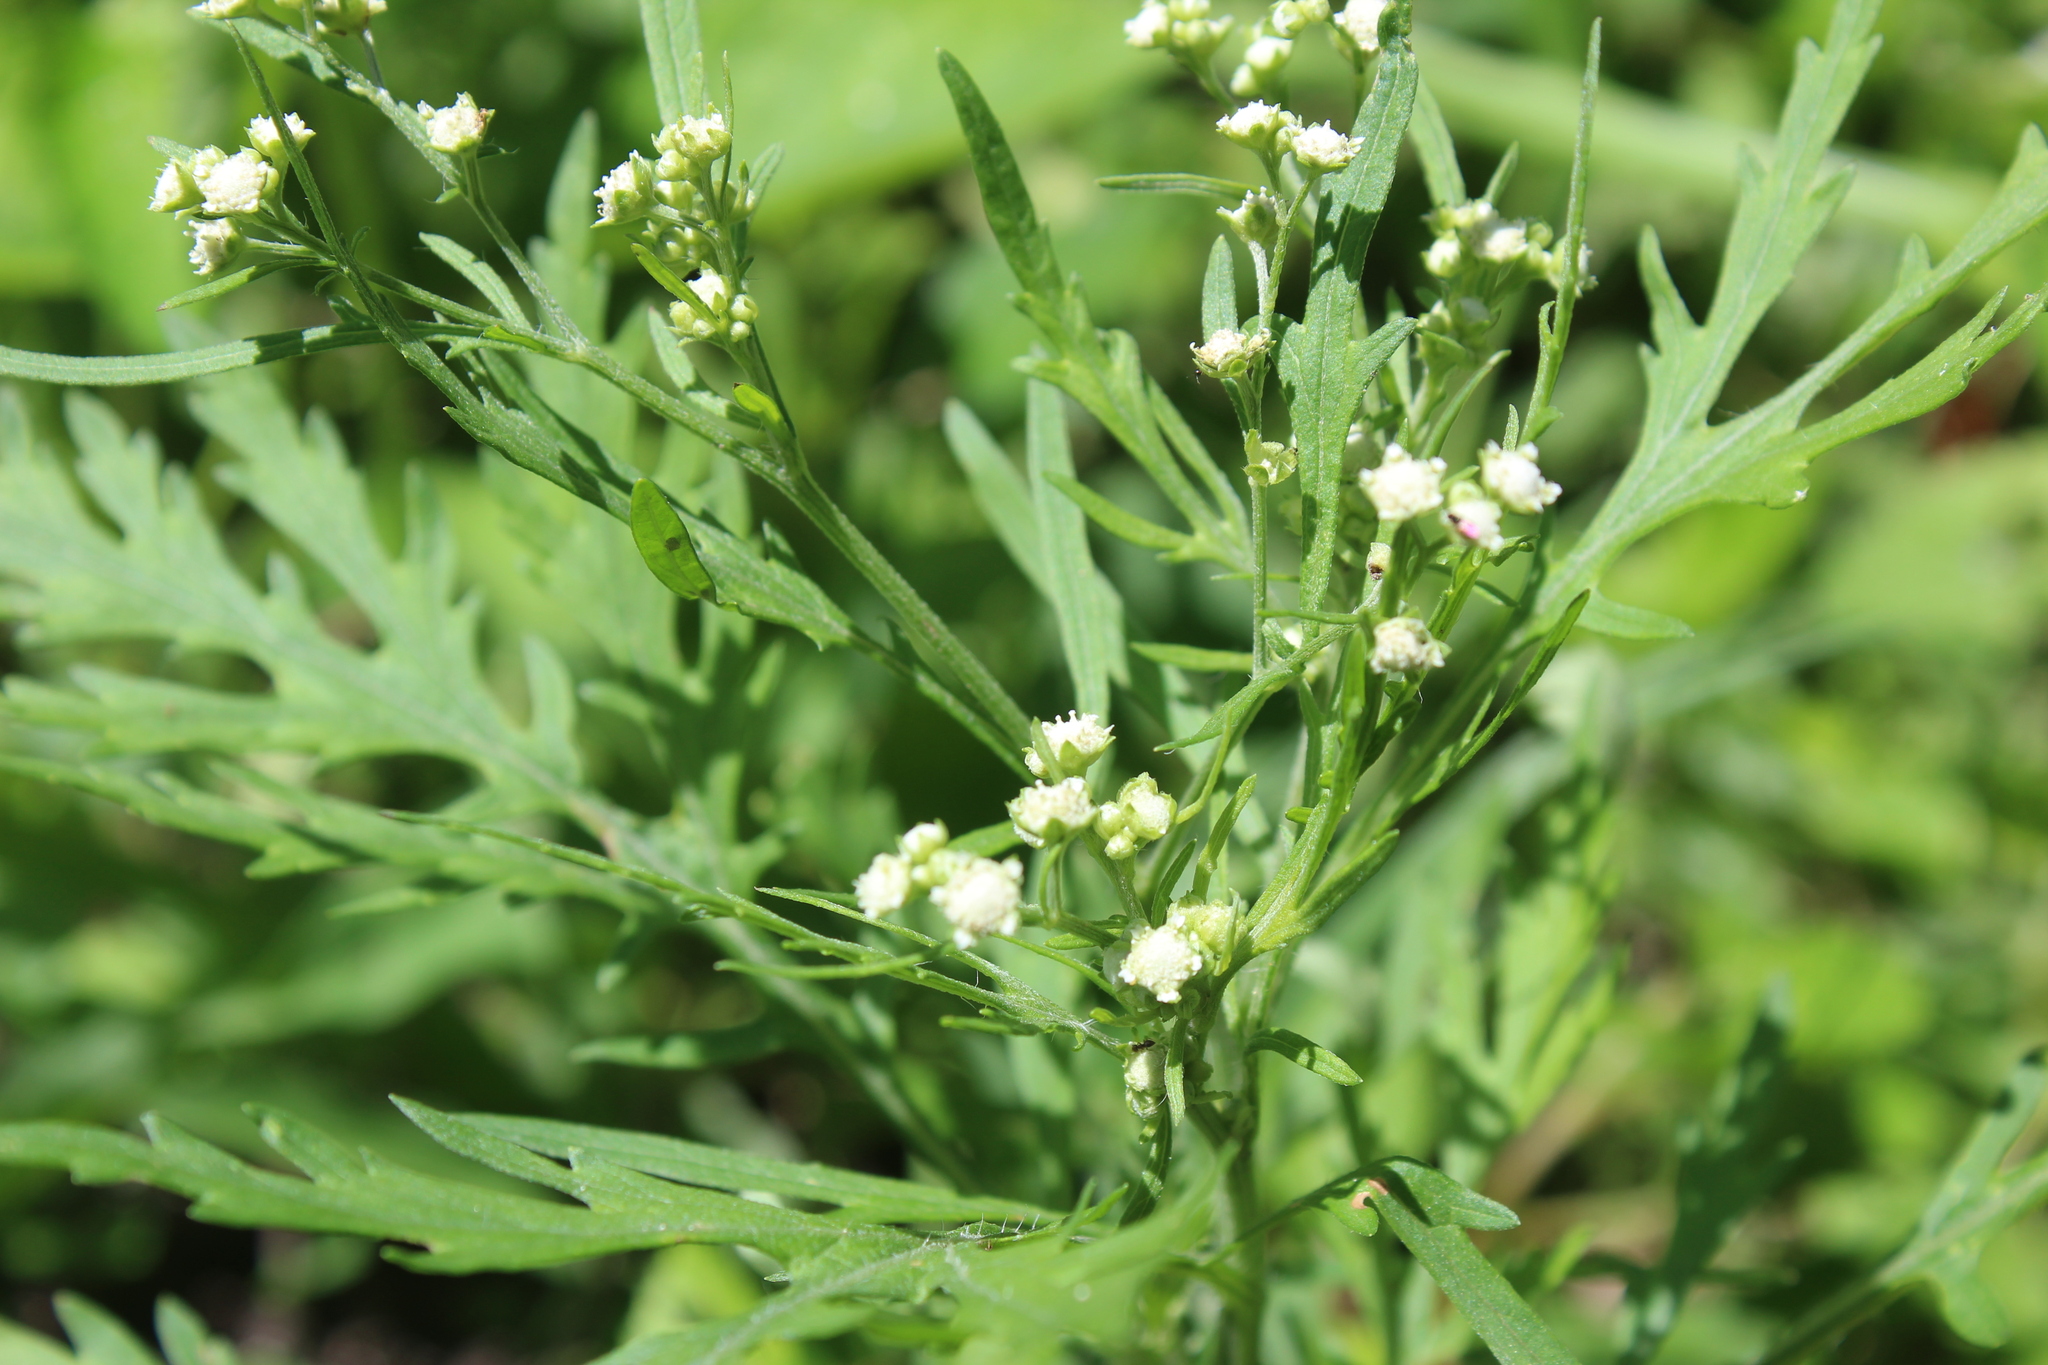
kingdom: Plantae
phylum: Tracheophyta
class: Magnoliopsida
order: Asterales
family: Asteraceae
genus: Parthenium
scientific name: Parthenium hysterophorus
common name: Santa maria feverfew
